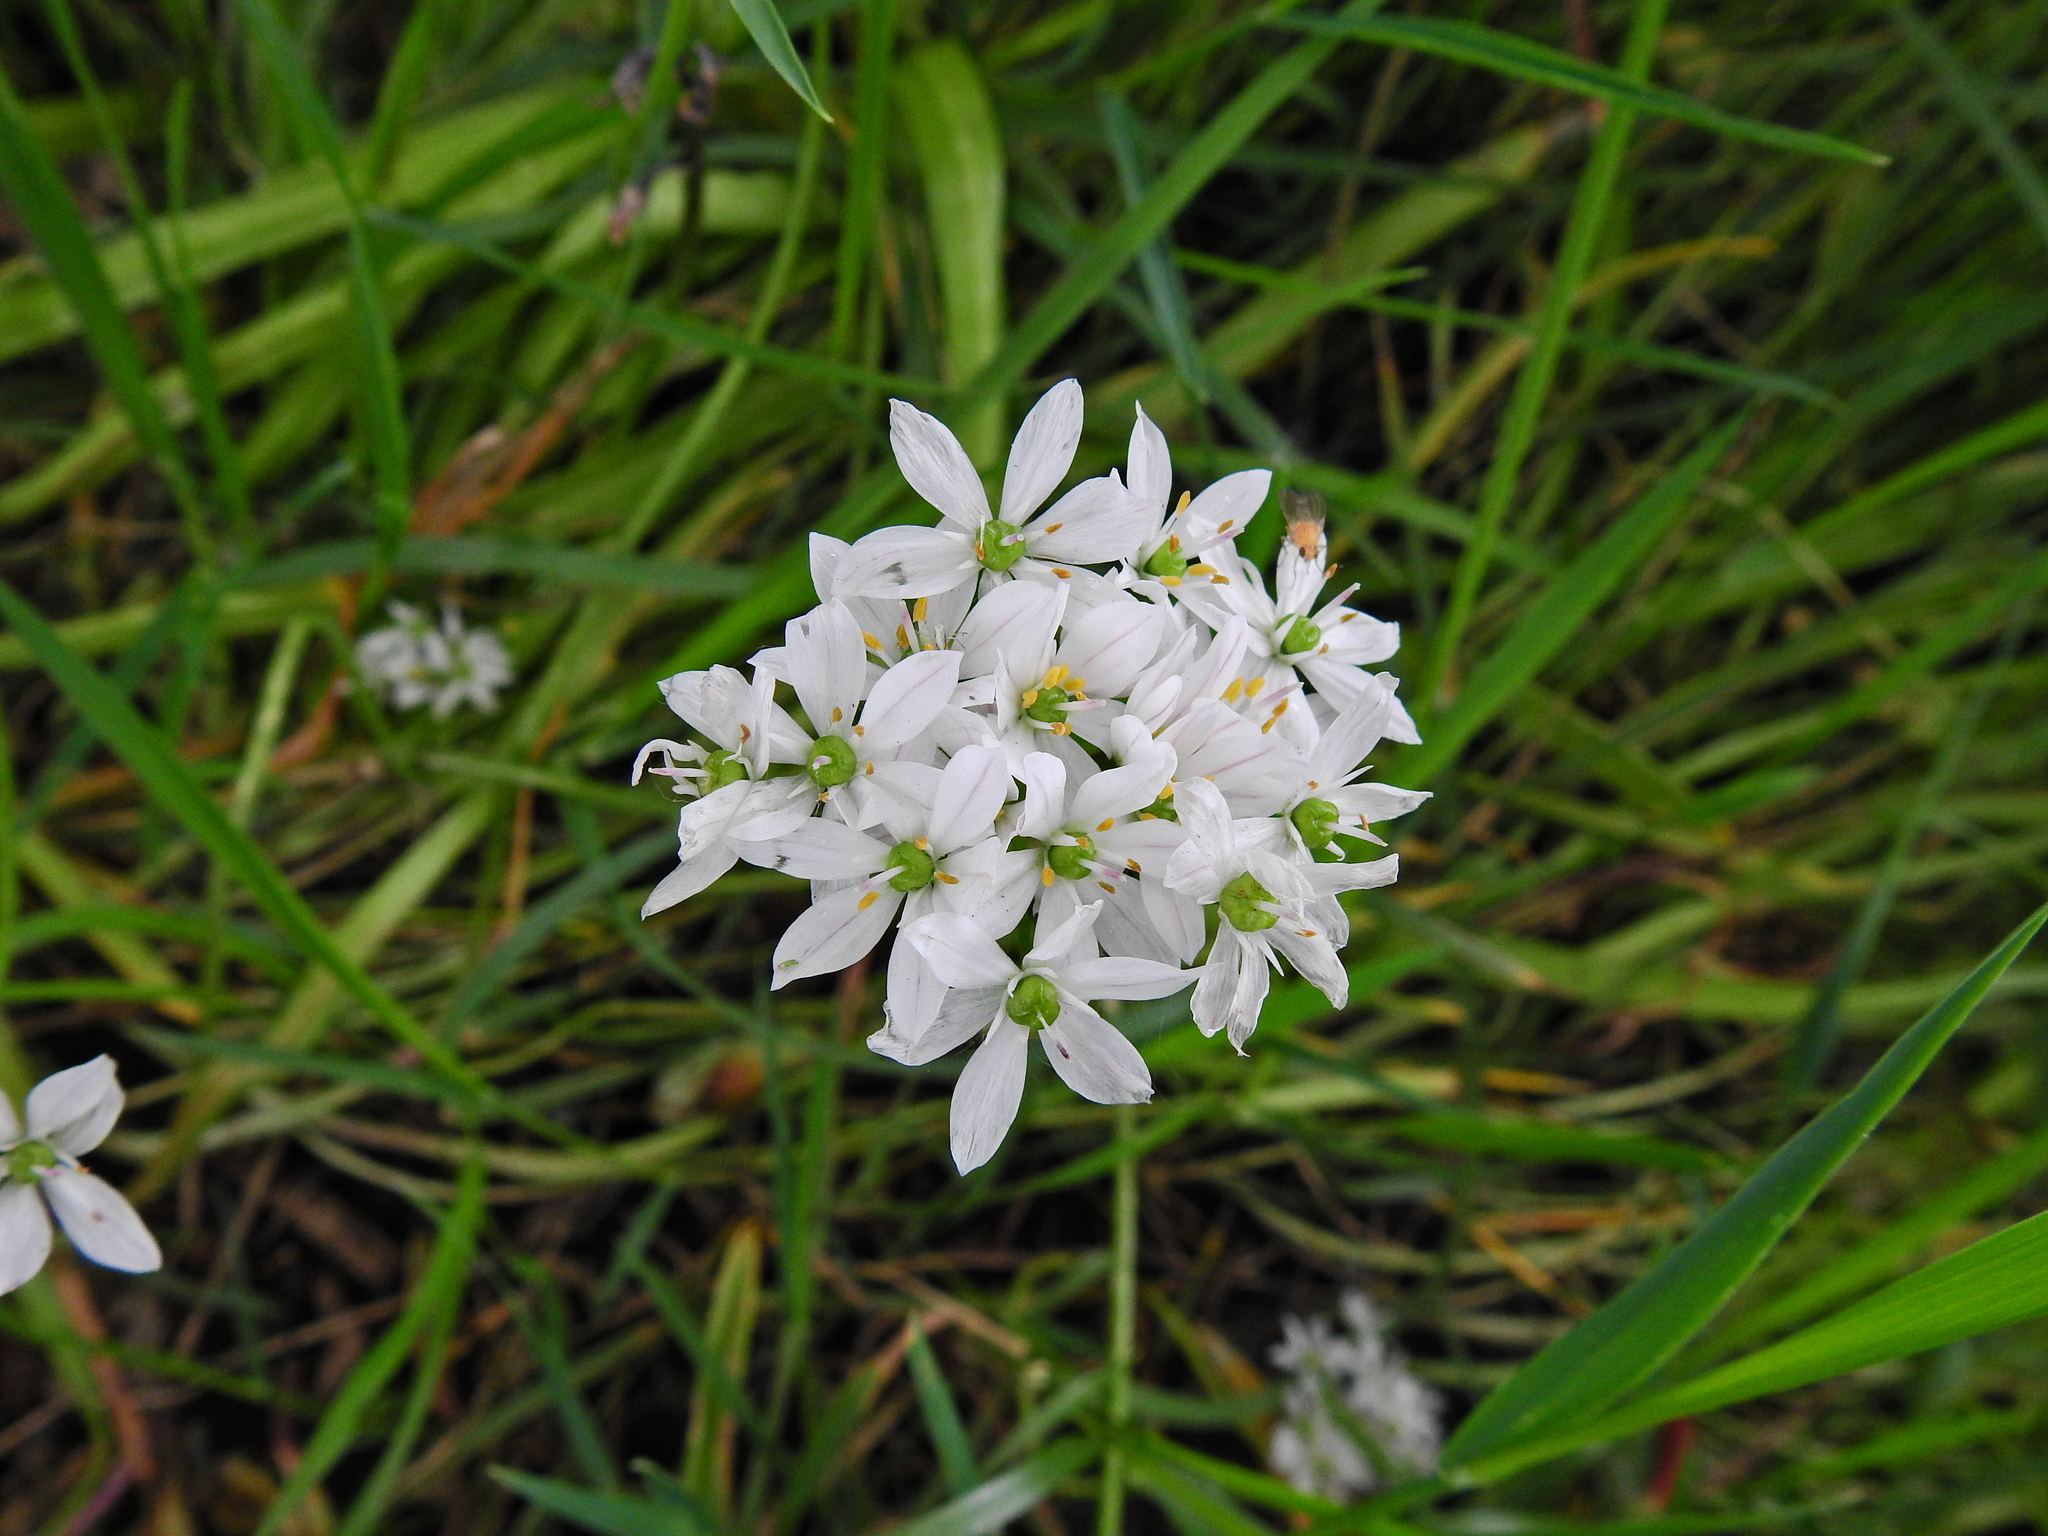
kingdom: Plantae
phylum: Tracheophyta
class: Liliopsida
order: Asparagales
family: Amaryllidaceae
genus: Allium
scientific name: Allium trifoliatum
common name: Pink garlic
